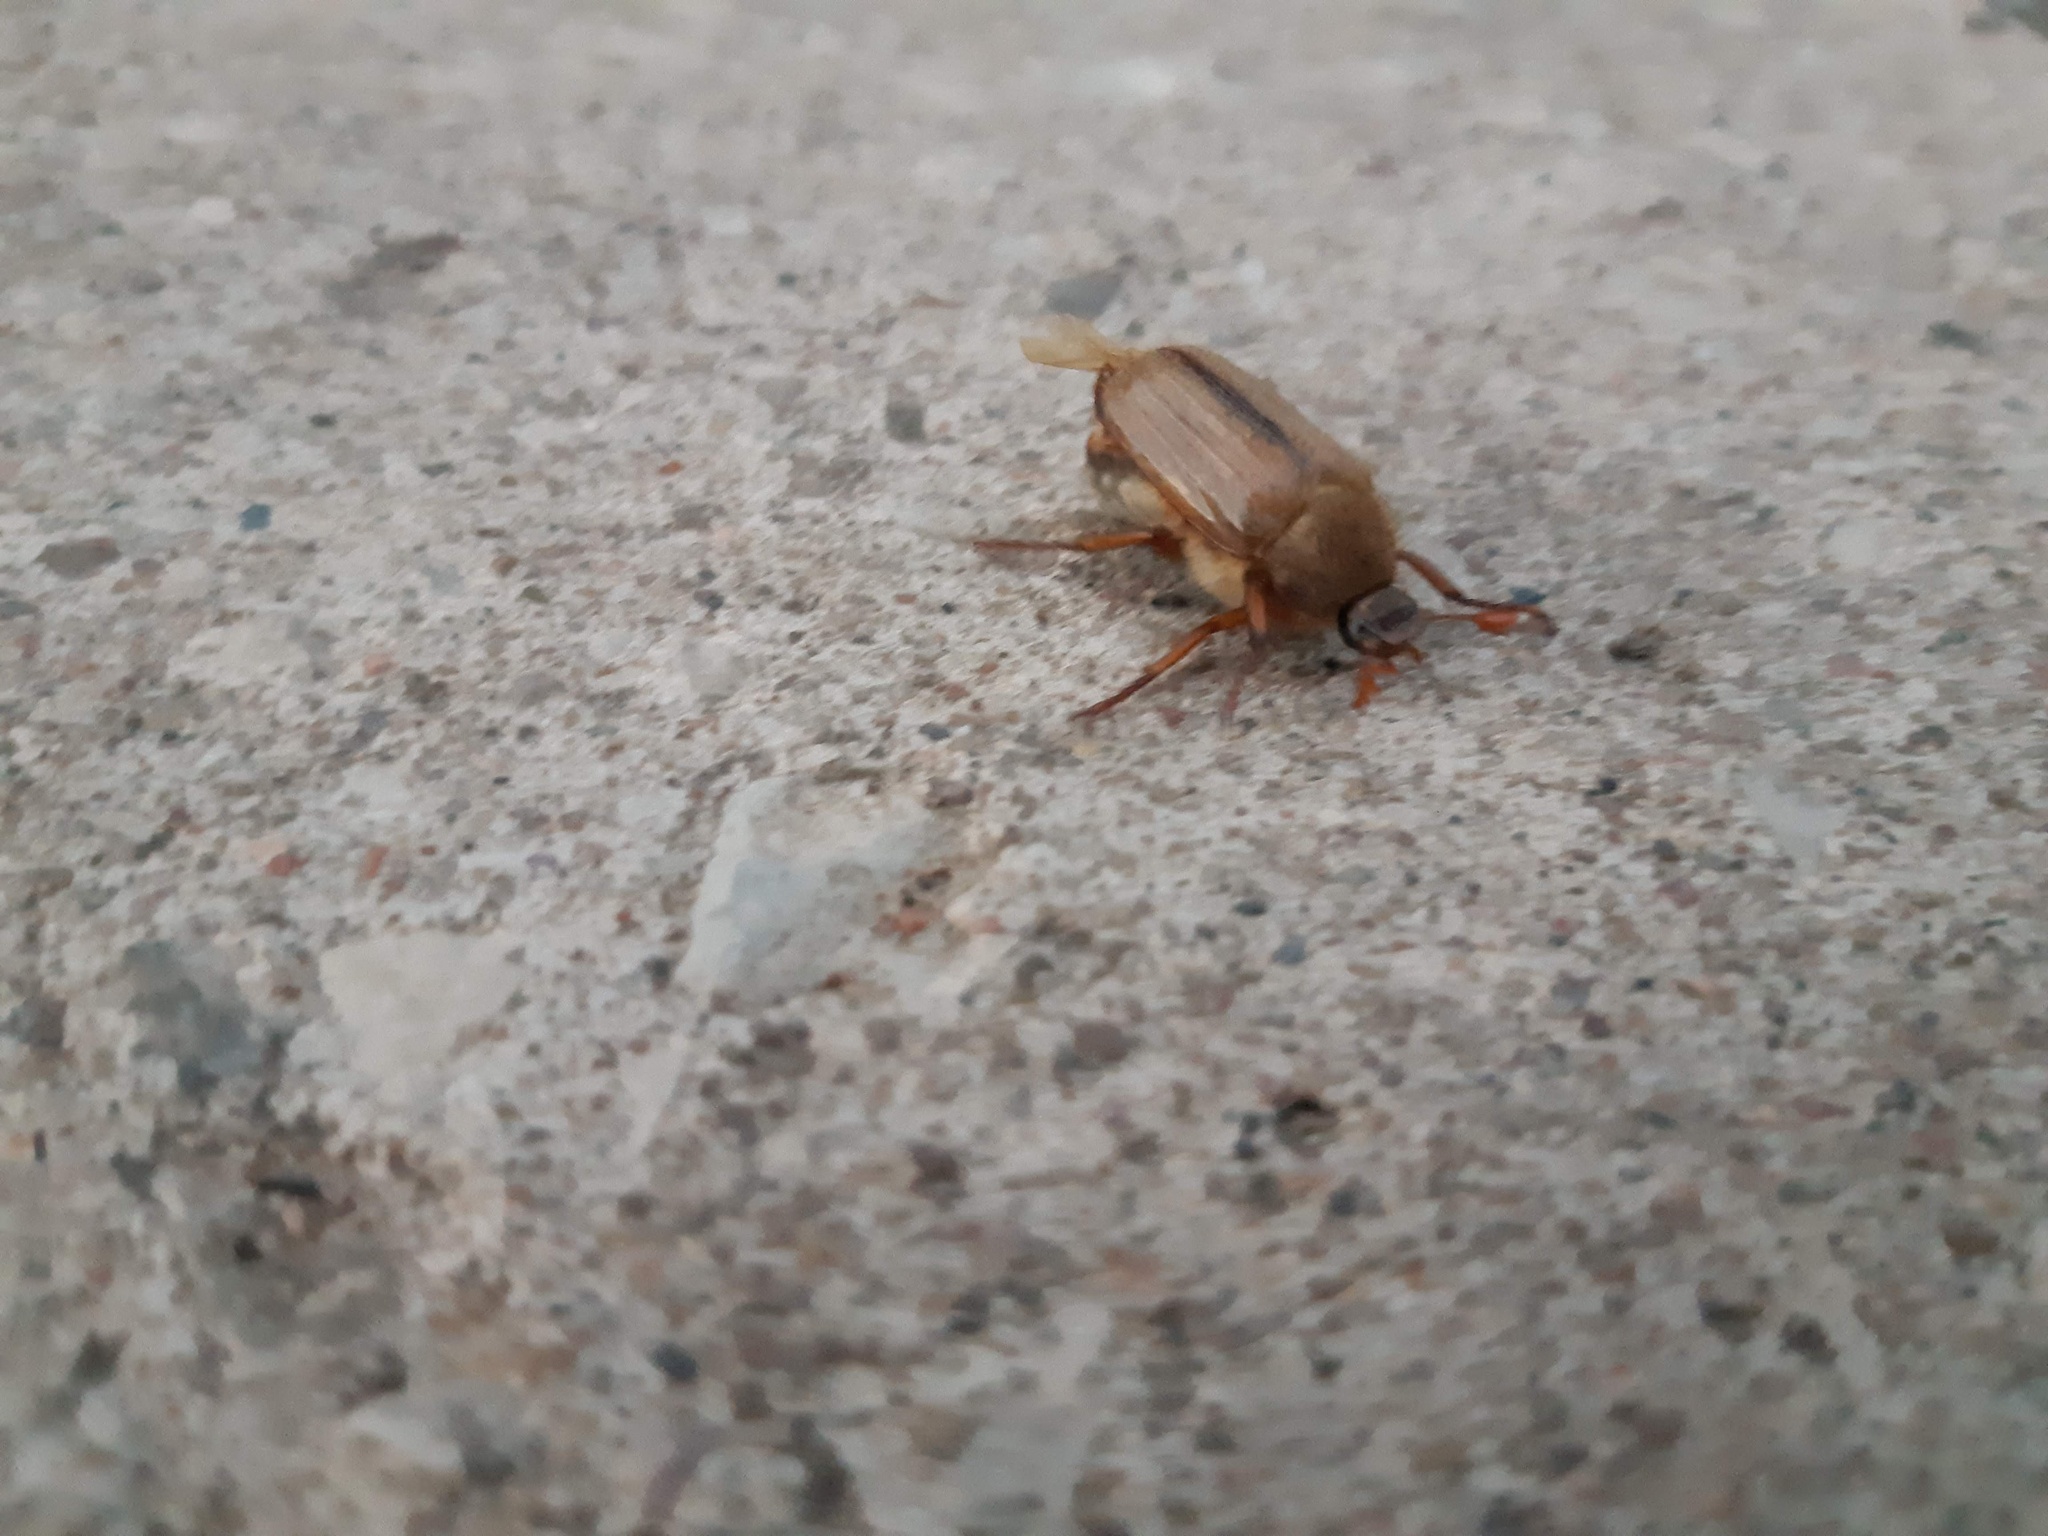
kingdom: Animalia
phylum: Arthropoda
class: Insecta
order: Coleoptera
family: Scarabaeidae
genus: Amphimallon
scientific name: Amphimallon solstitiale
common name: Summer chafer
